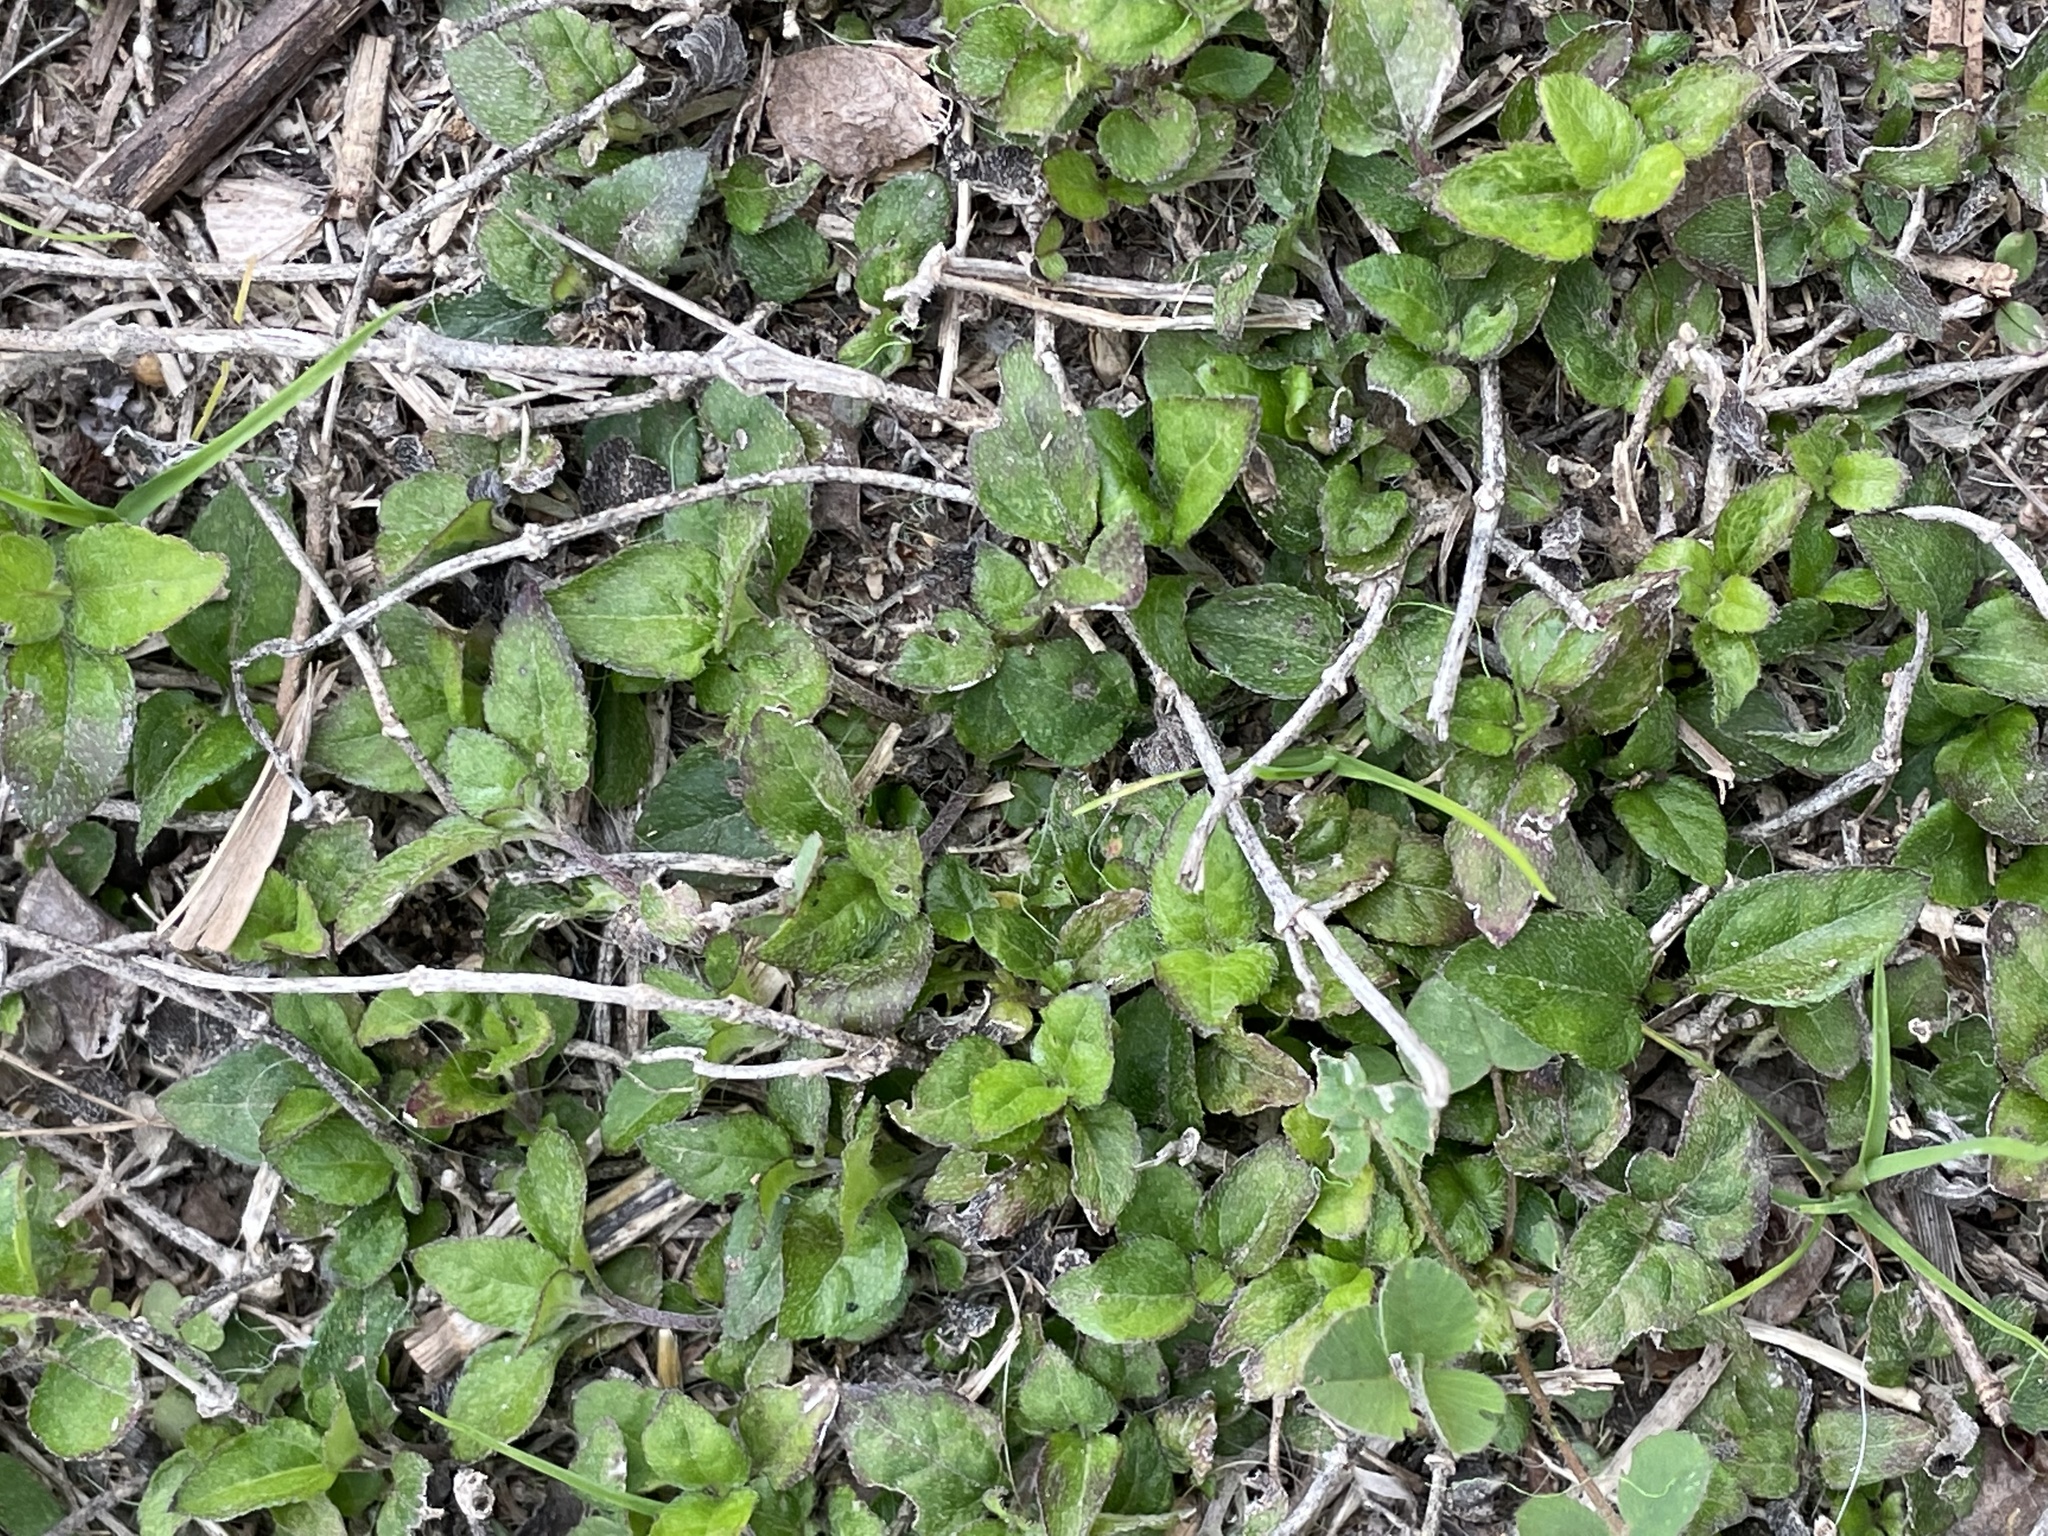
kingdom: Plantae
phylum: Tracheophyta
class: Magnoliopsida
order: Asterales
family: Asteraceae
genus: Calyptocarpus
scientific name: Calyptocarpus vialis
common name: Straggler daisy
